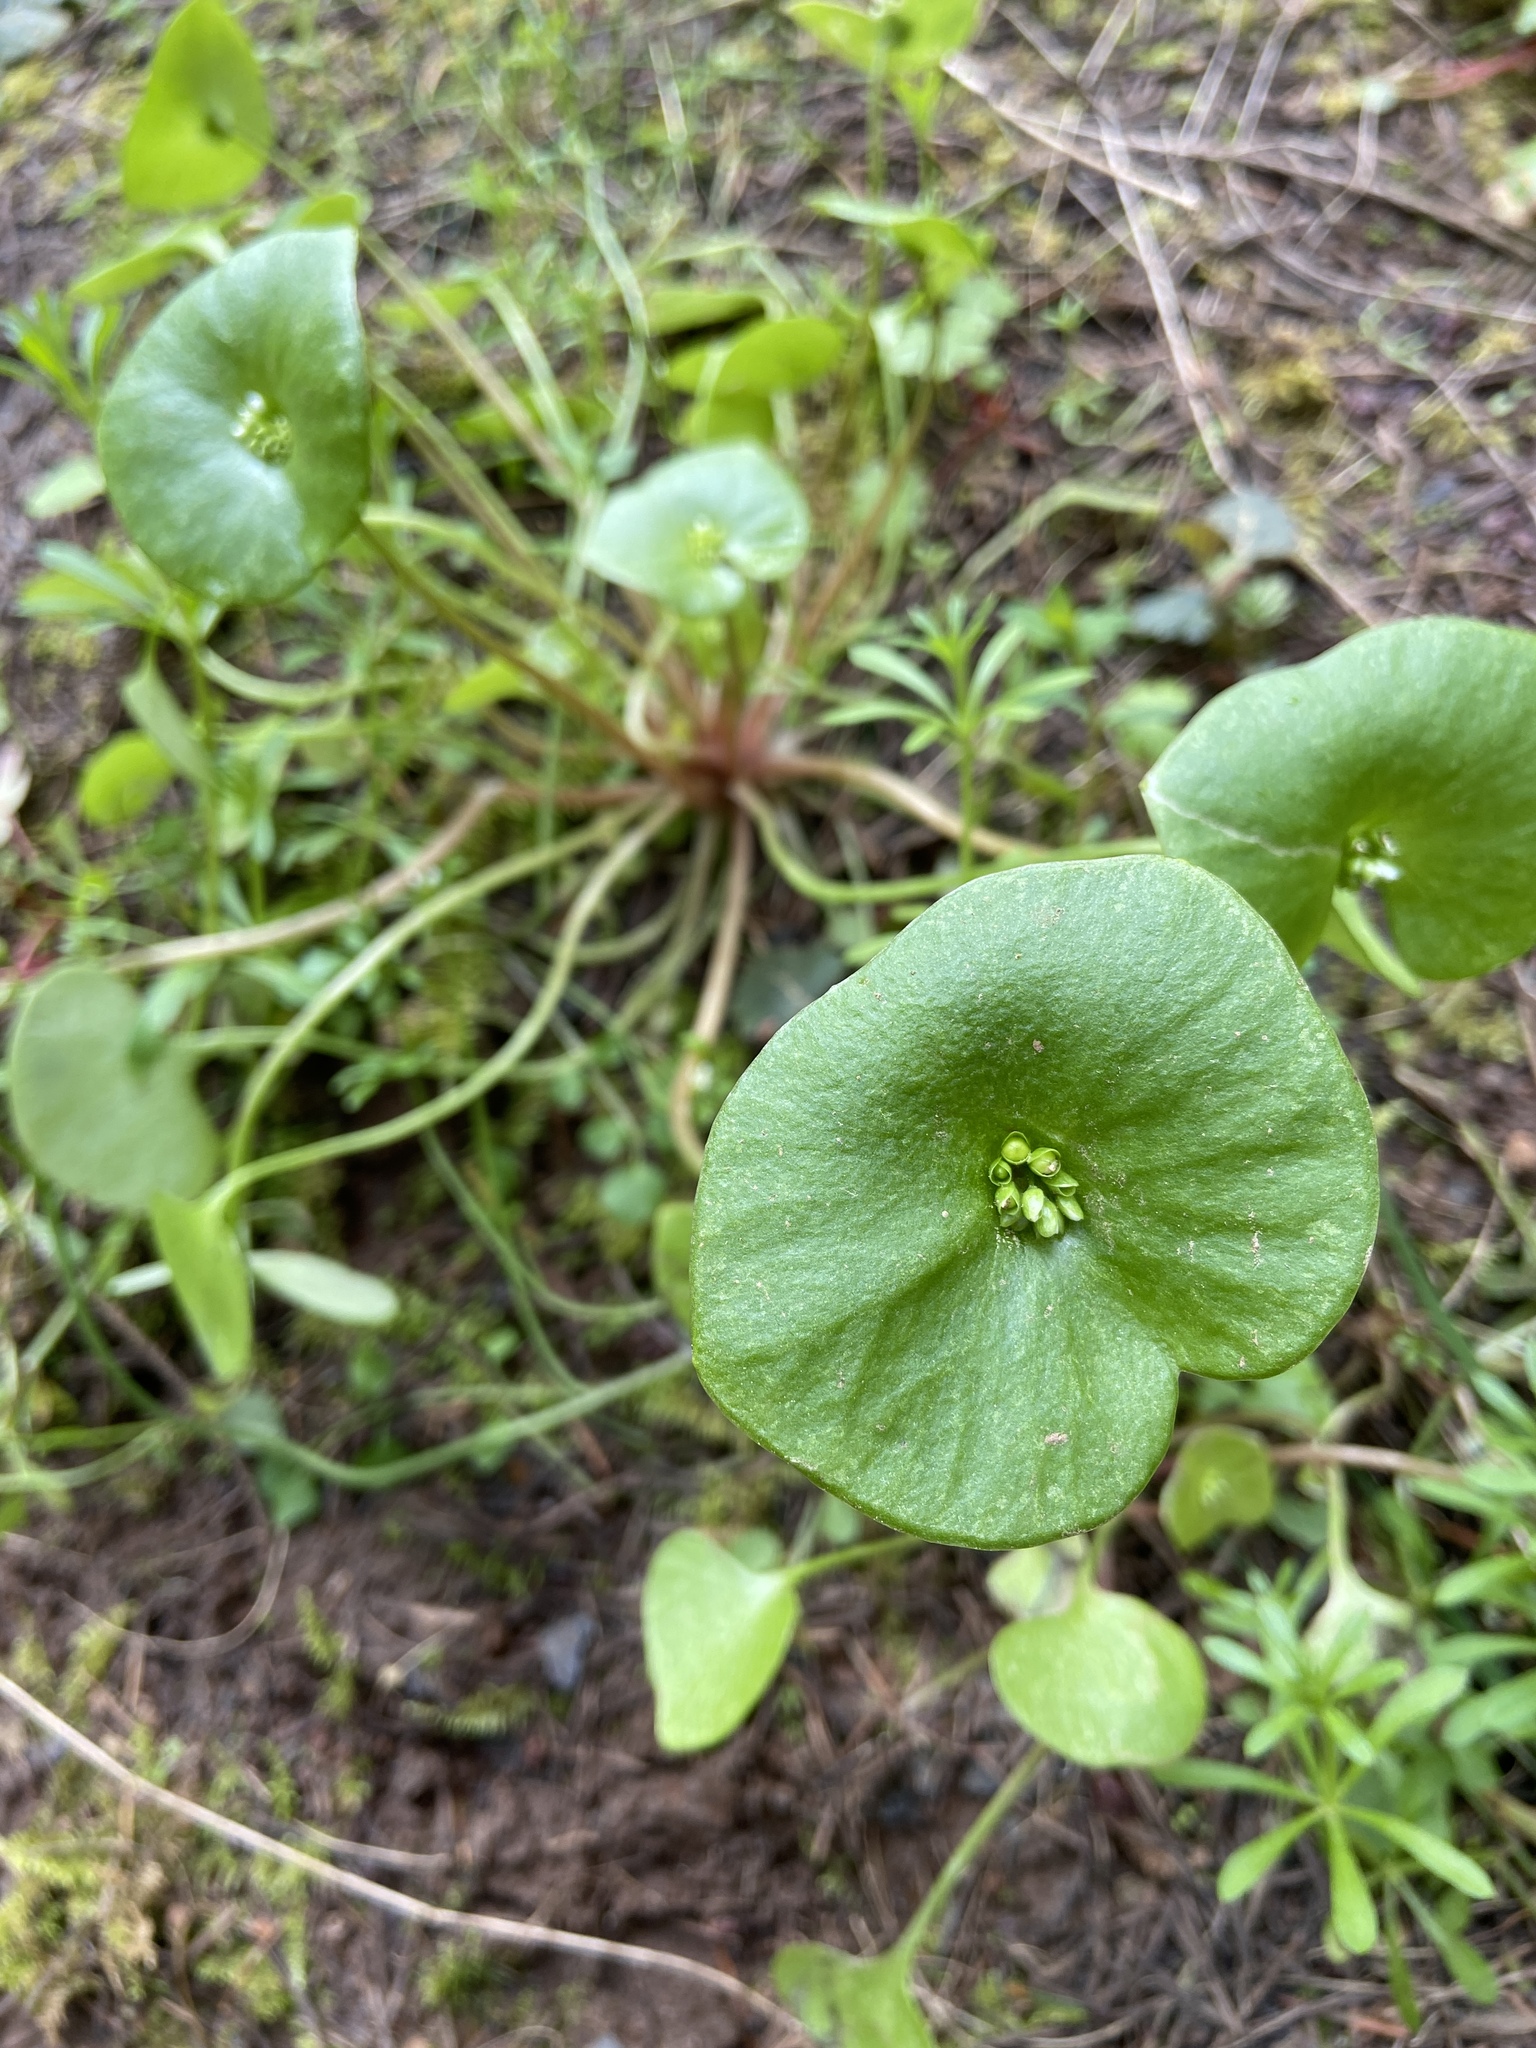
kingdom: Plantae
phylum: Tracheophyta
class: Magnoliopsida
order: Caryophyllales
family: Montiaceae
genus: Claytonia
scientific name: Claytonia perfoliata
